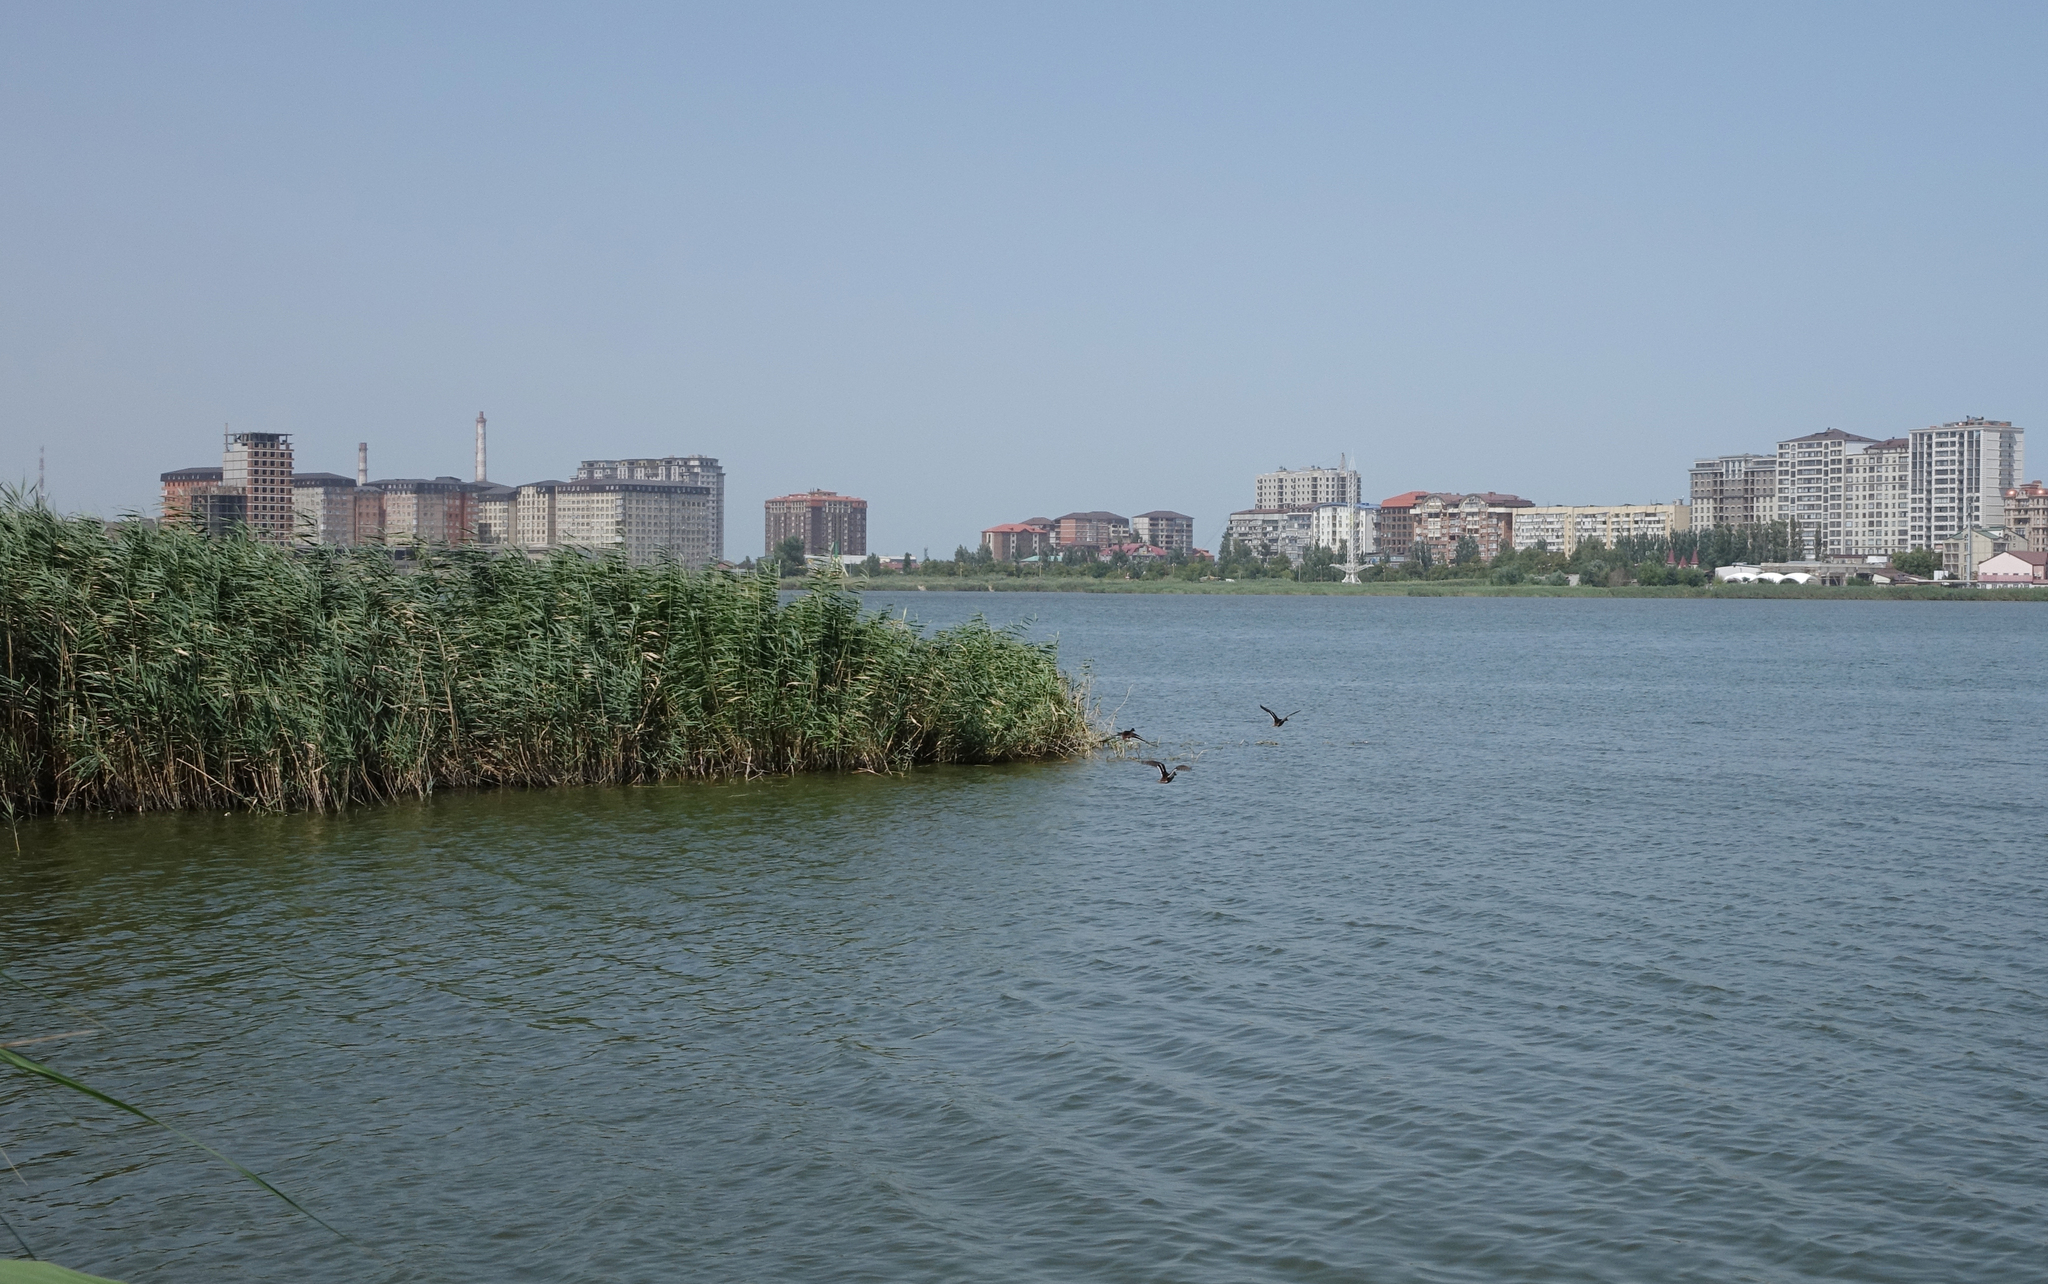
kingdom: Animalia
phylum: Chordata
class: Aves
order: Anseriformes
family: Anatidae
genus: Anas
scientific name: Anas platyrhynchos
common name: Mallard
